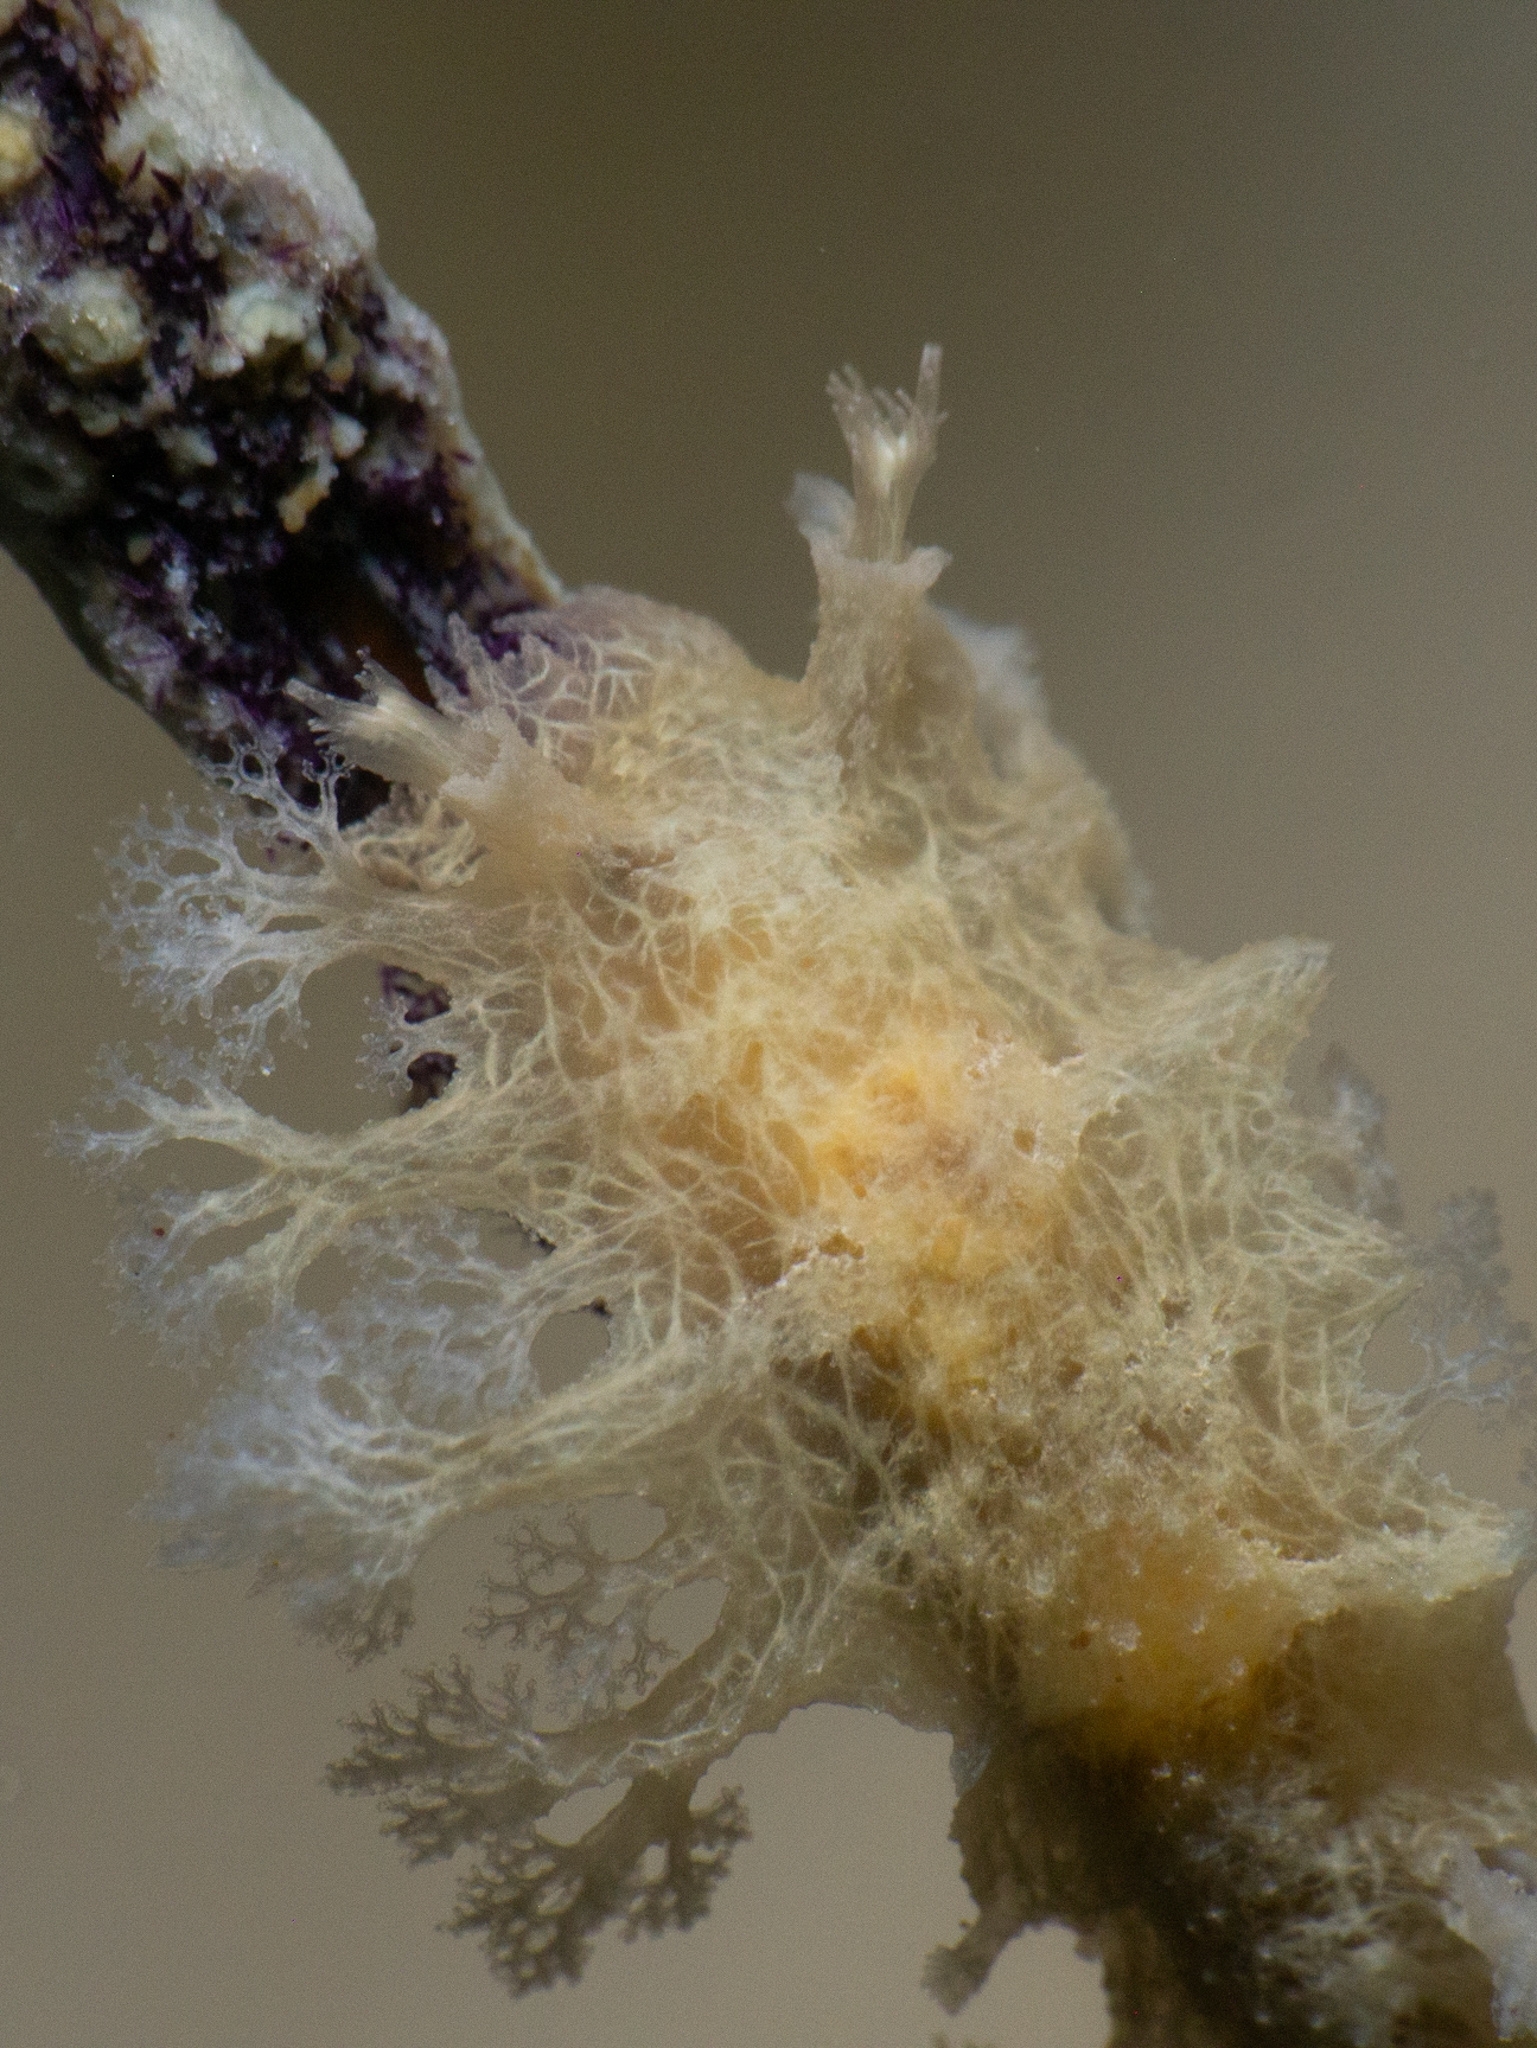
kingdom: Animalia
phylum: Mollusca
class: Gastropoda
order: Nudibranchia
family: Tritoniidae
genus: Tritoniopsis
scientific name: Tritoniopsis frydis
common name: Tufted tritoniopsis
